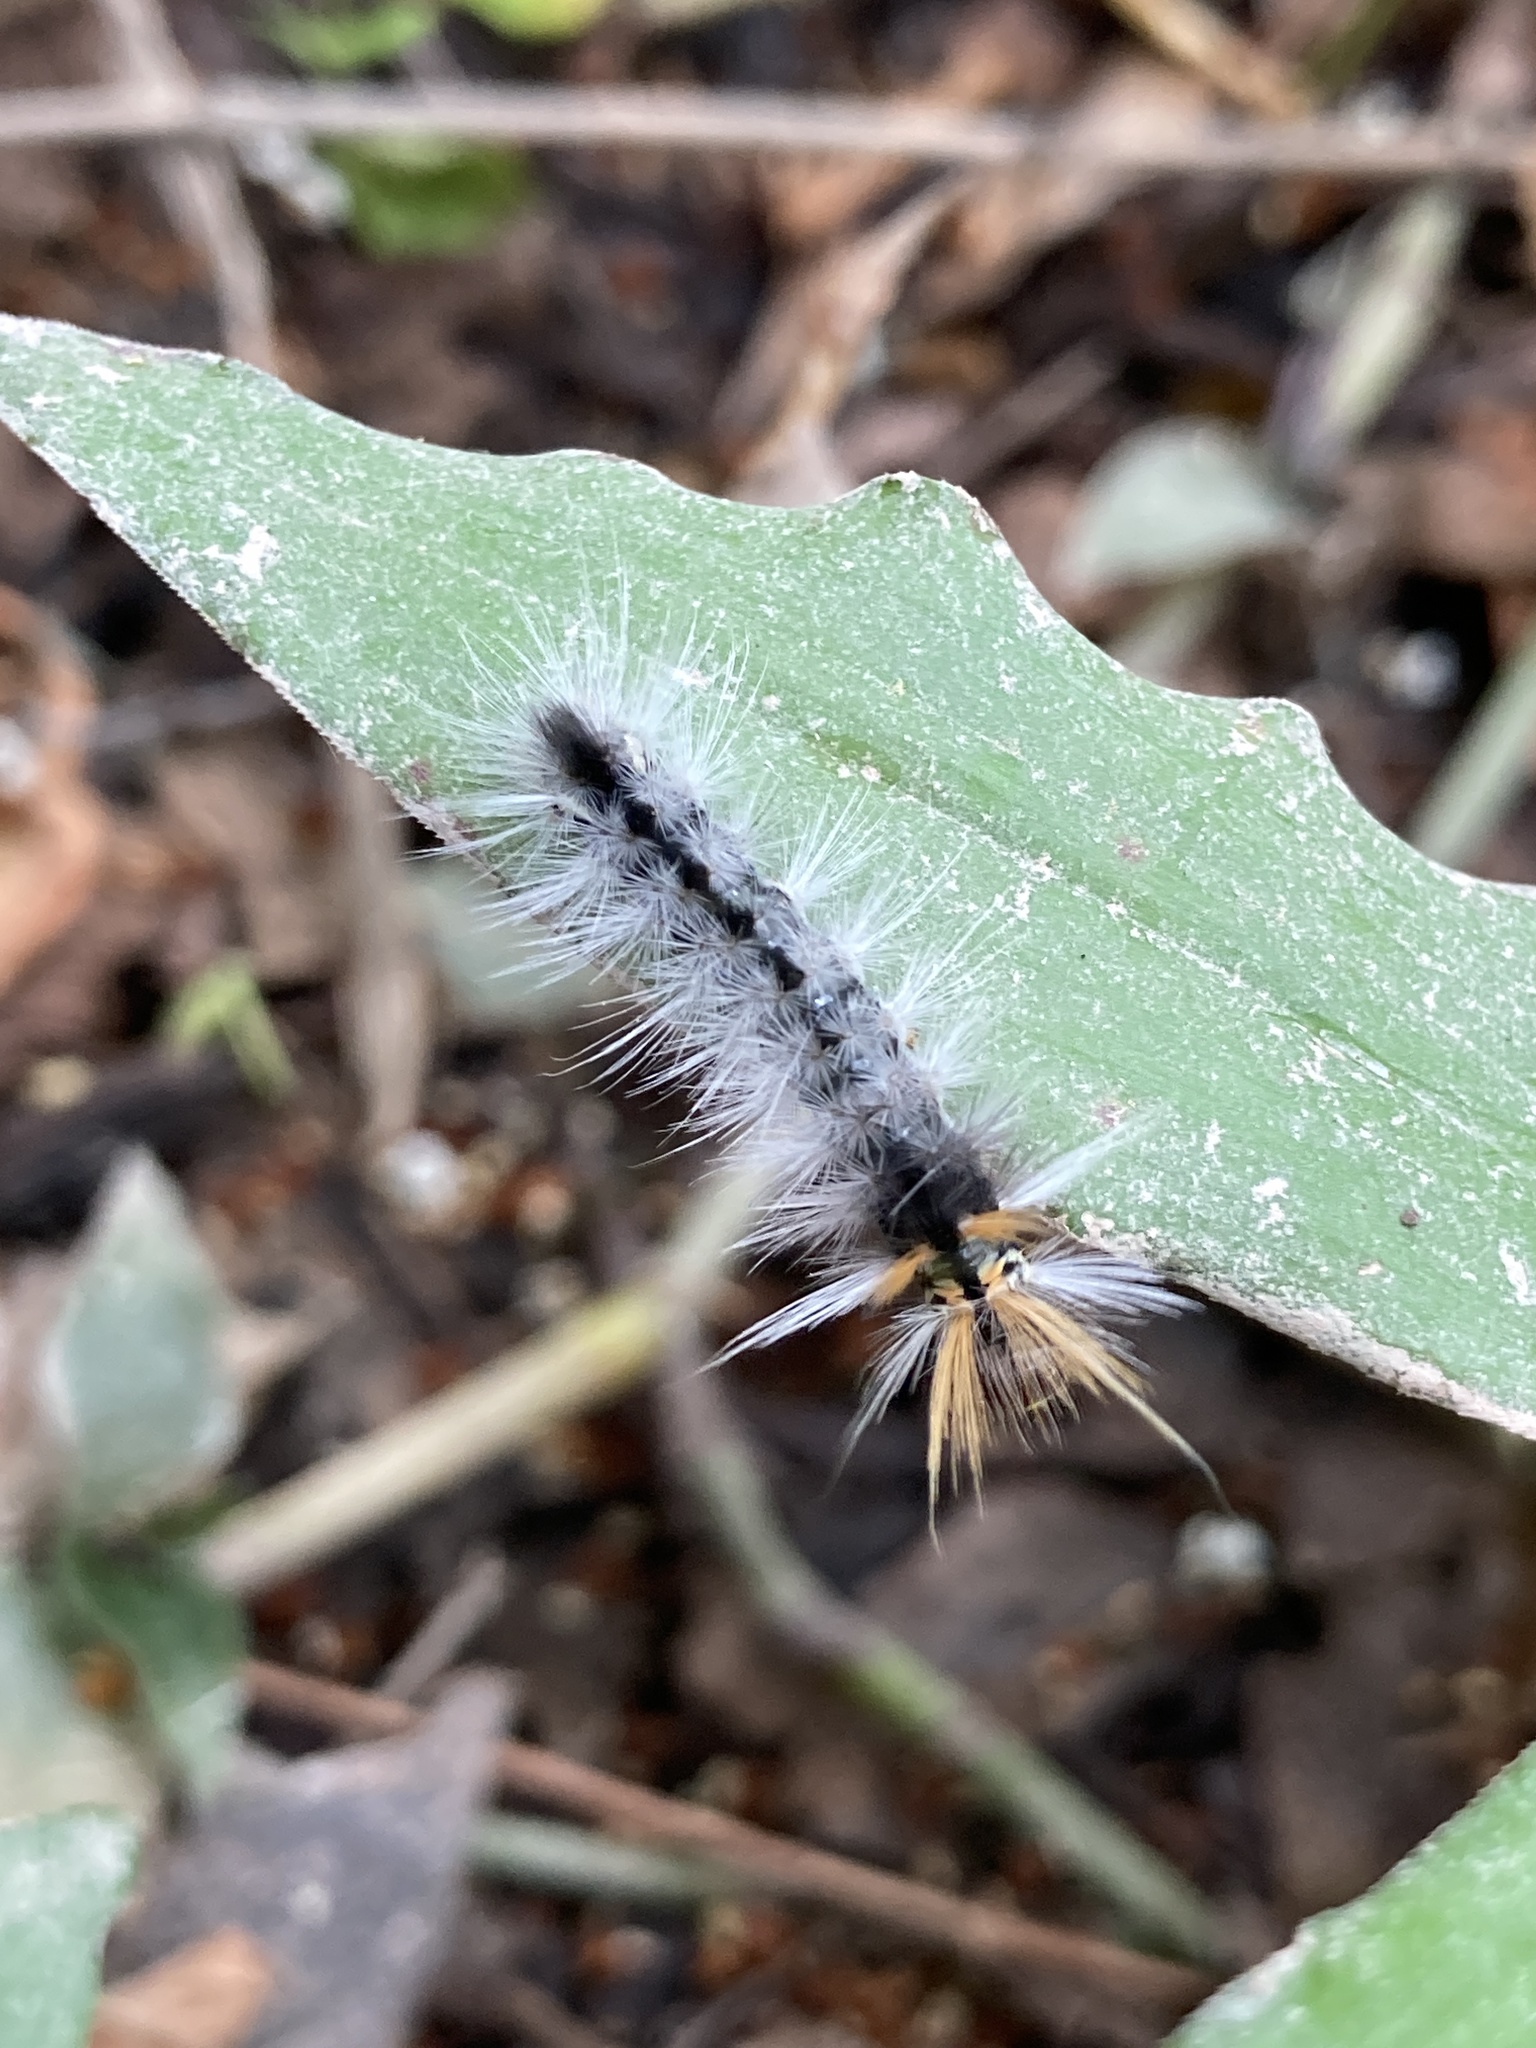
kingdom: Animalia
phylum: Arthropoda
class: Insecta
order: Lepidoptera
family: Erebidae
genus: Halysidota
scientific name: Halysidota ruscheweyhi
